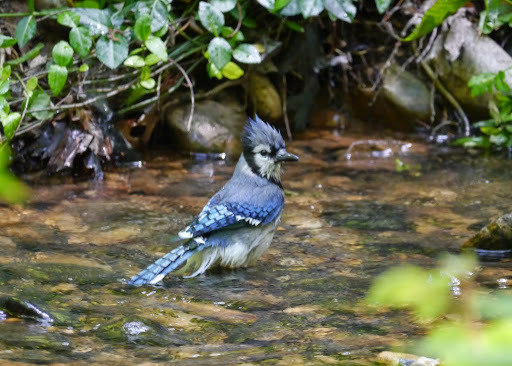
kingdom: Animalia
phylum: Chordata
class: Aves
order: Passeriformes
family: Corvidae
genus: Cyanocitta
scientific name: Cyanocitta cristata
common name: Blue jay
